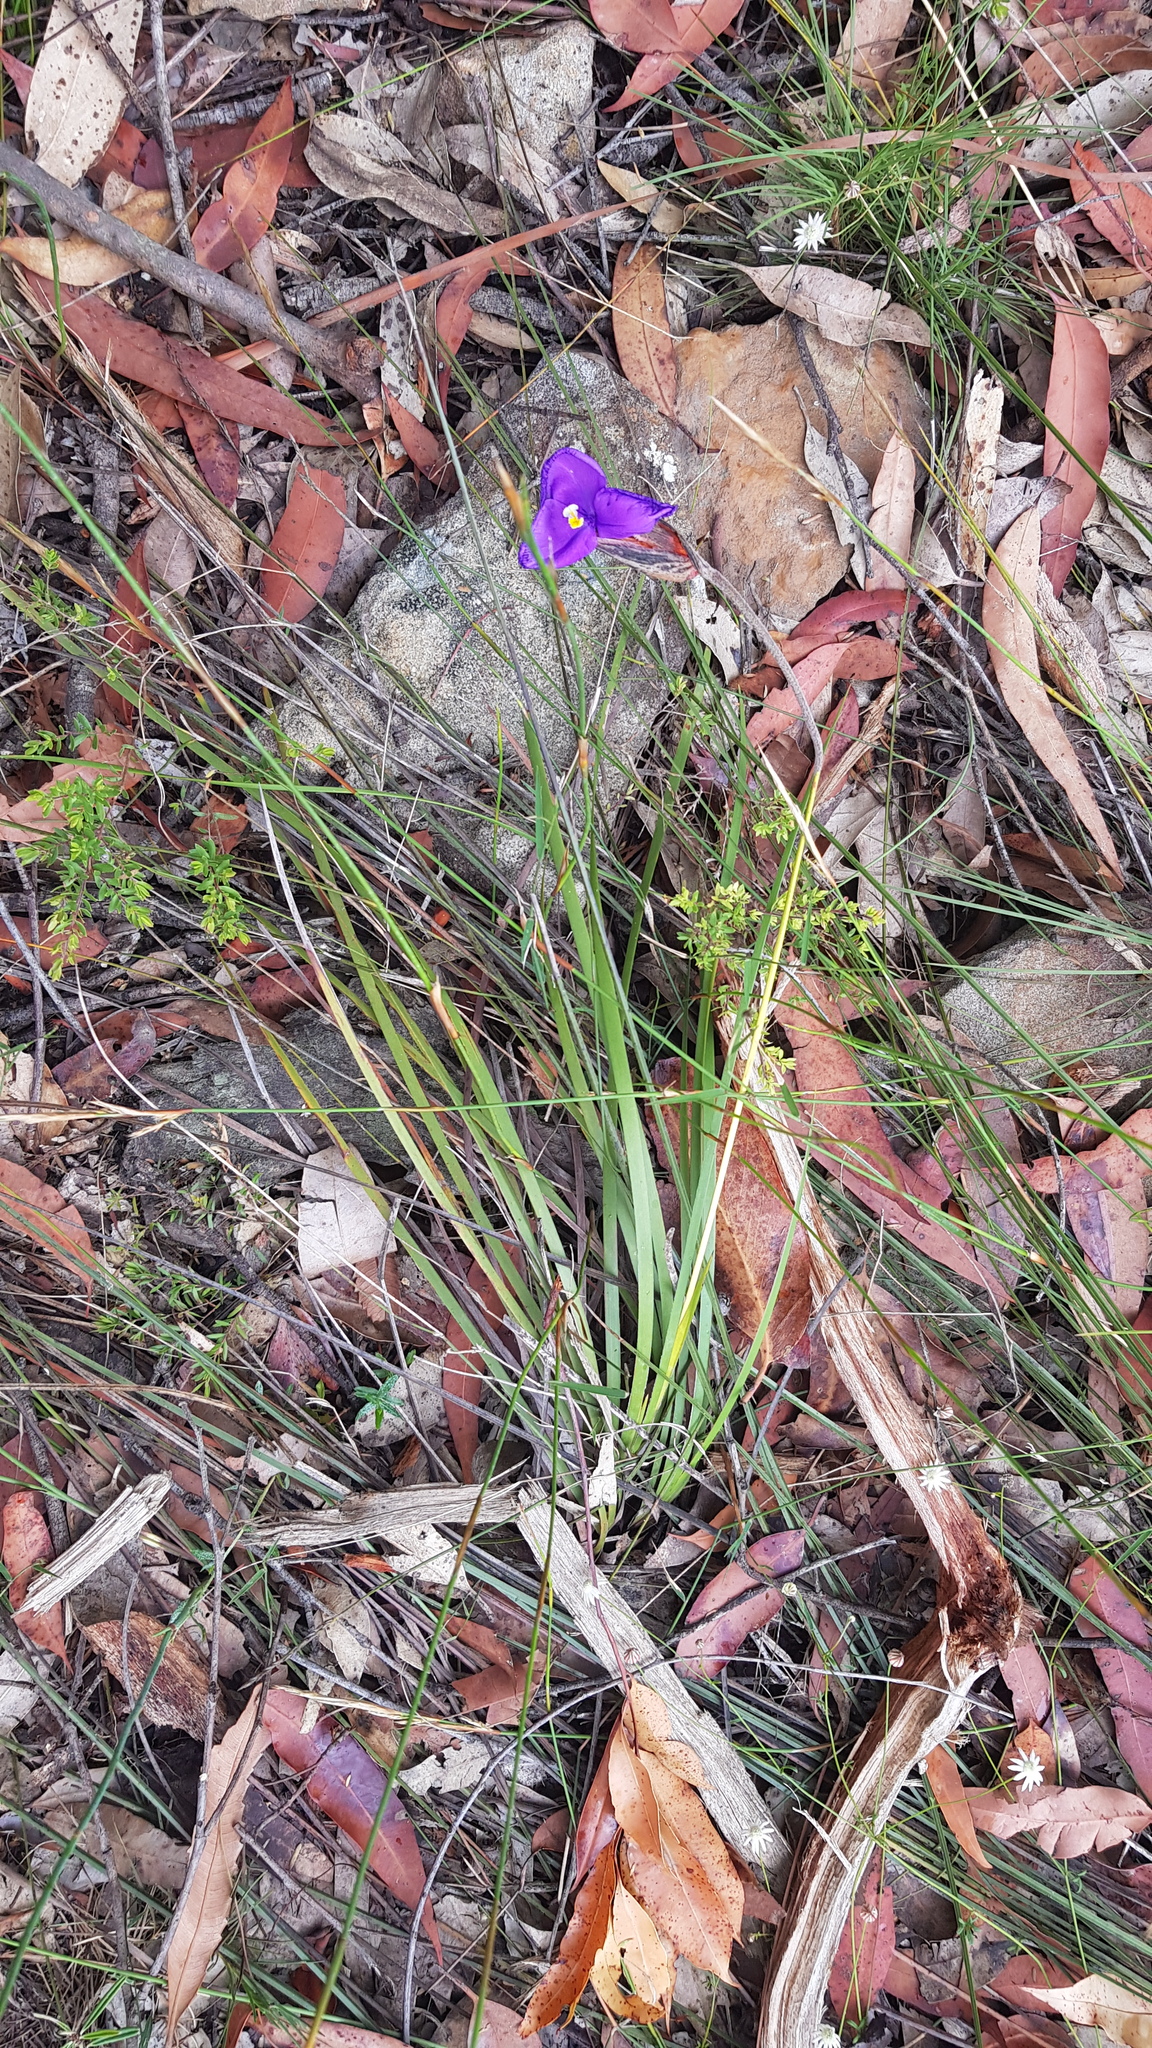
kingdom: Plantae
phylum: Tracheophyta
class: Liliopsida
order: Asparagales
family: Iridaceae
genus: Patersonia
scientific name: Patersonia sericea
